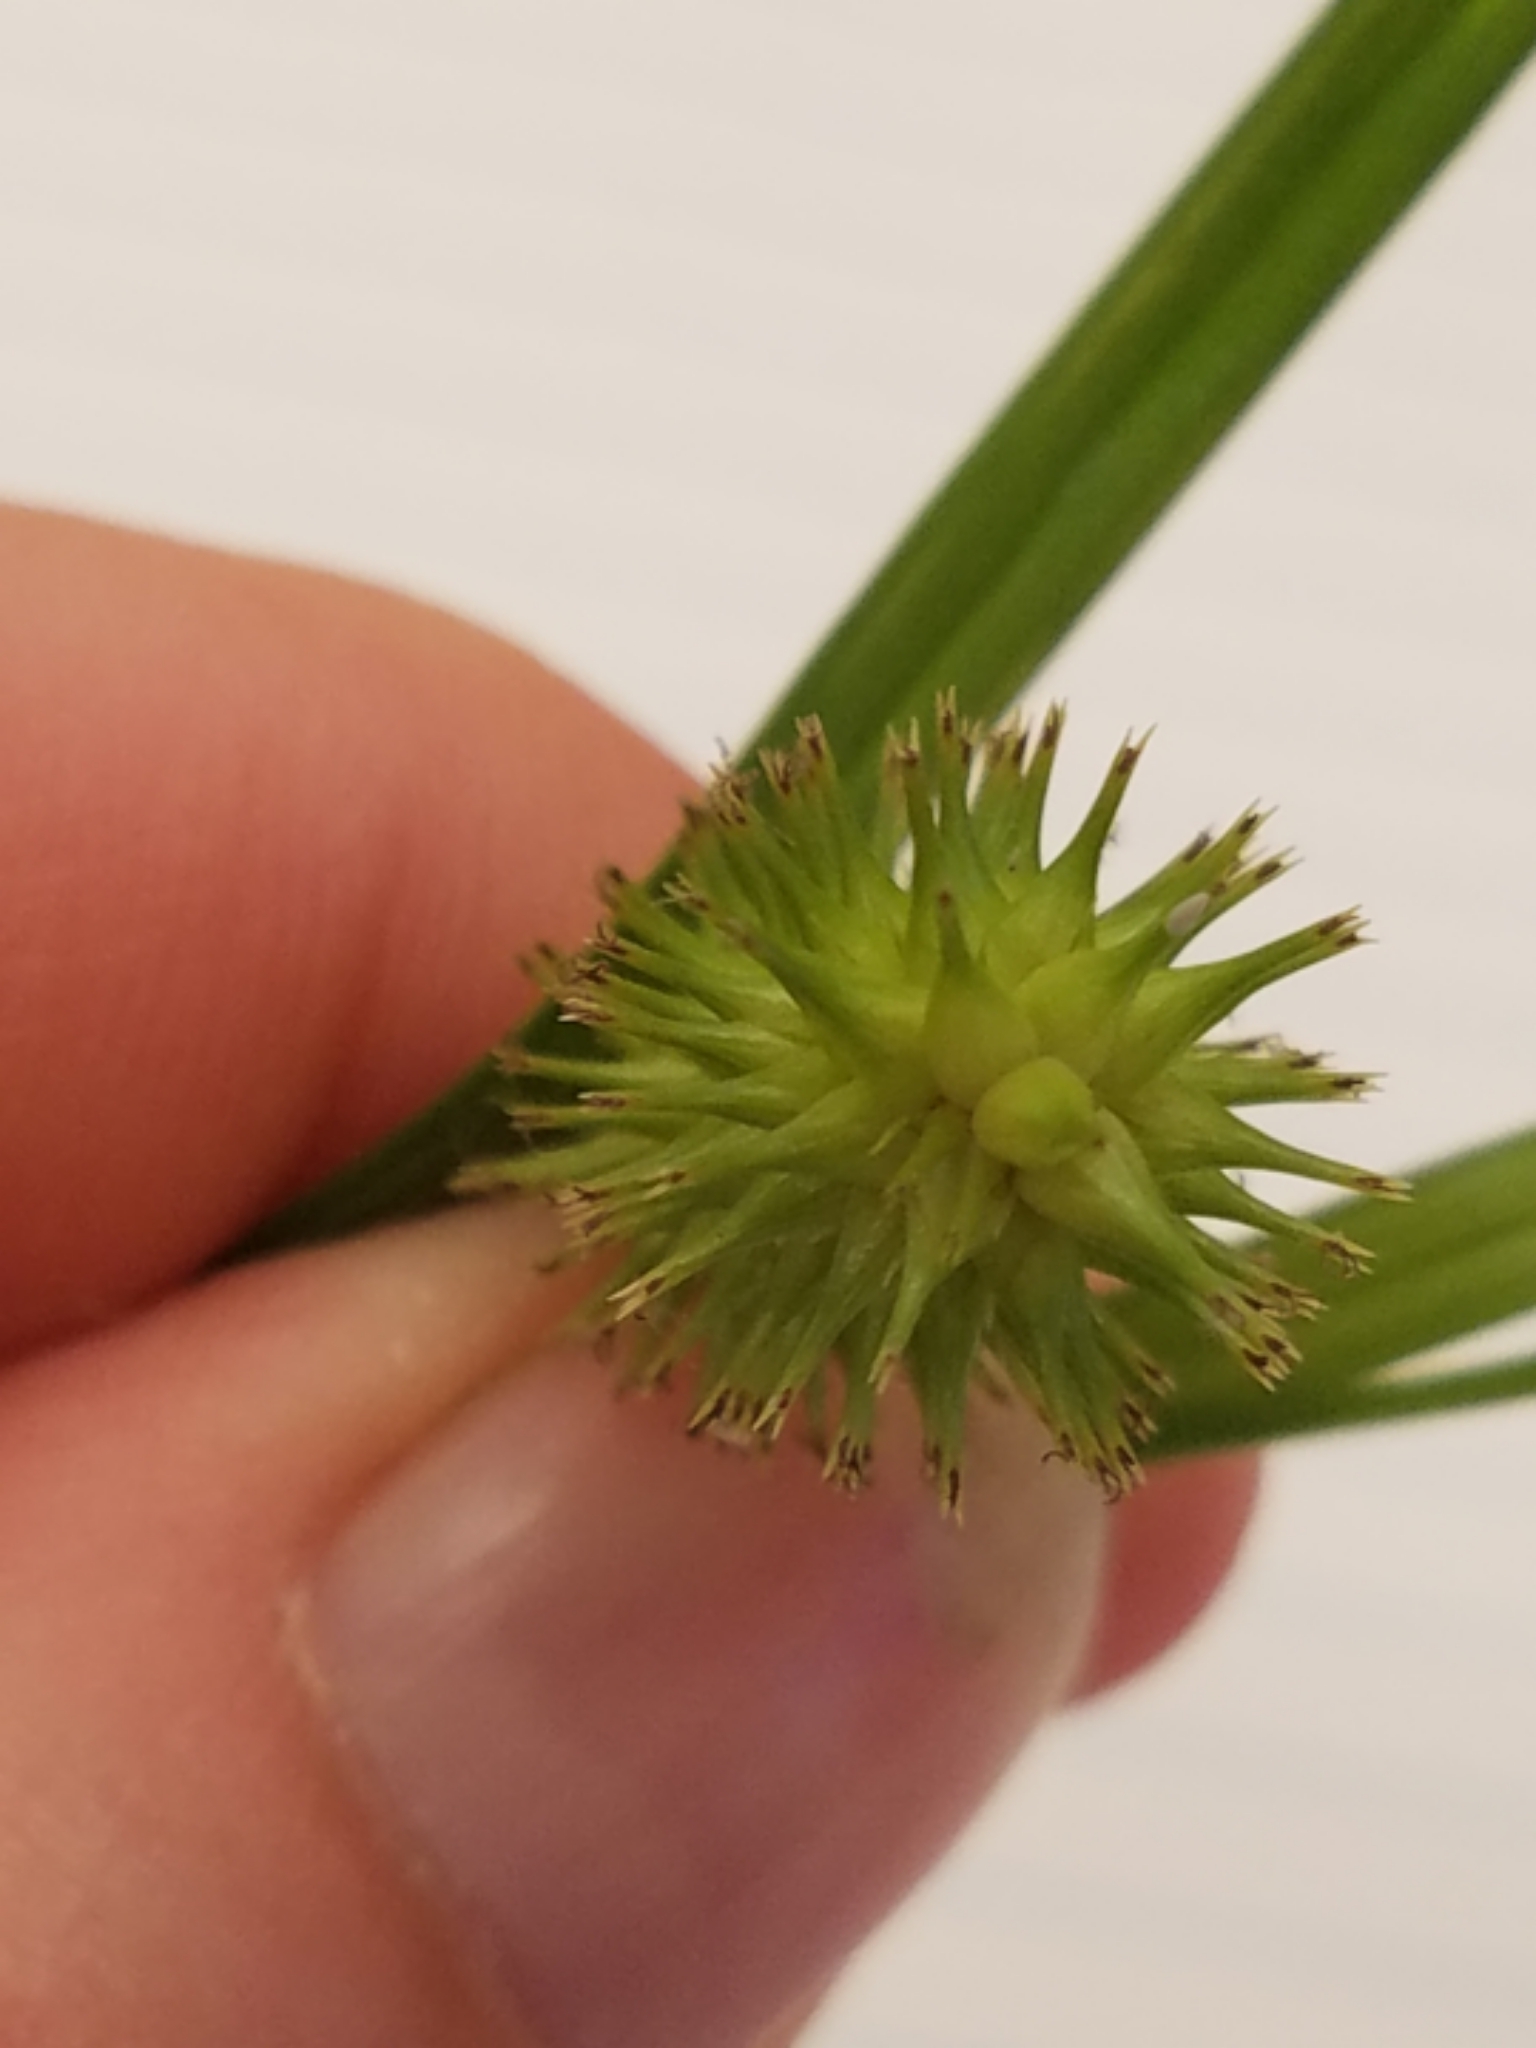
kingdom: Plantae
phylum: Tracheophyta
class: Liliopsida
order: Poales
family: Cyperaceae
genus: Carex
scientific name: Carex hystericina
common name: Bottlebrush sedge
